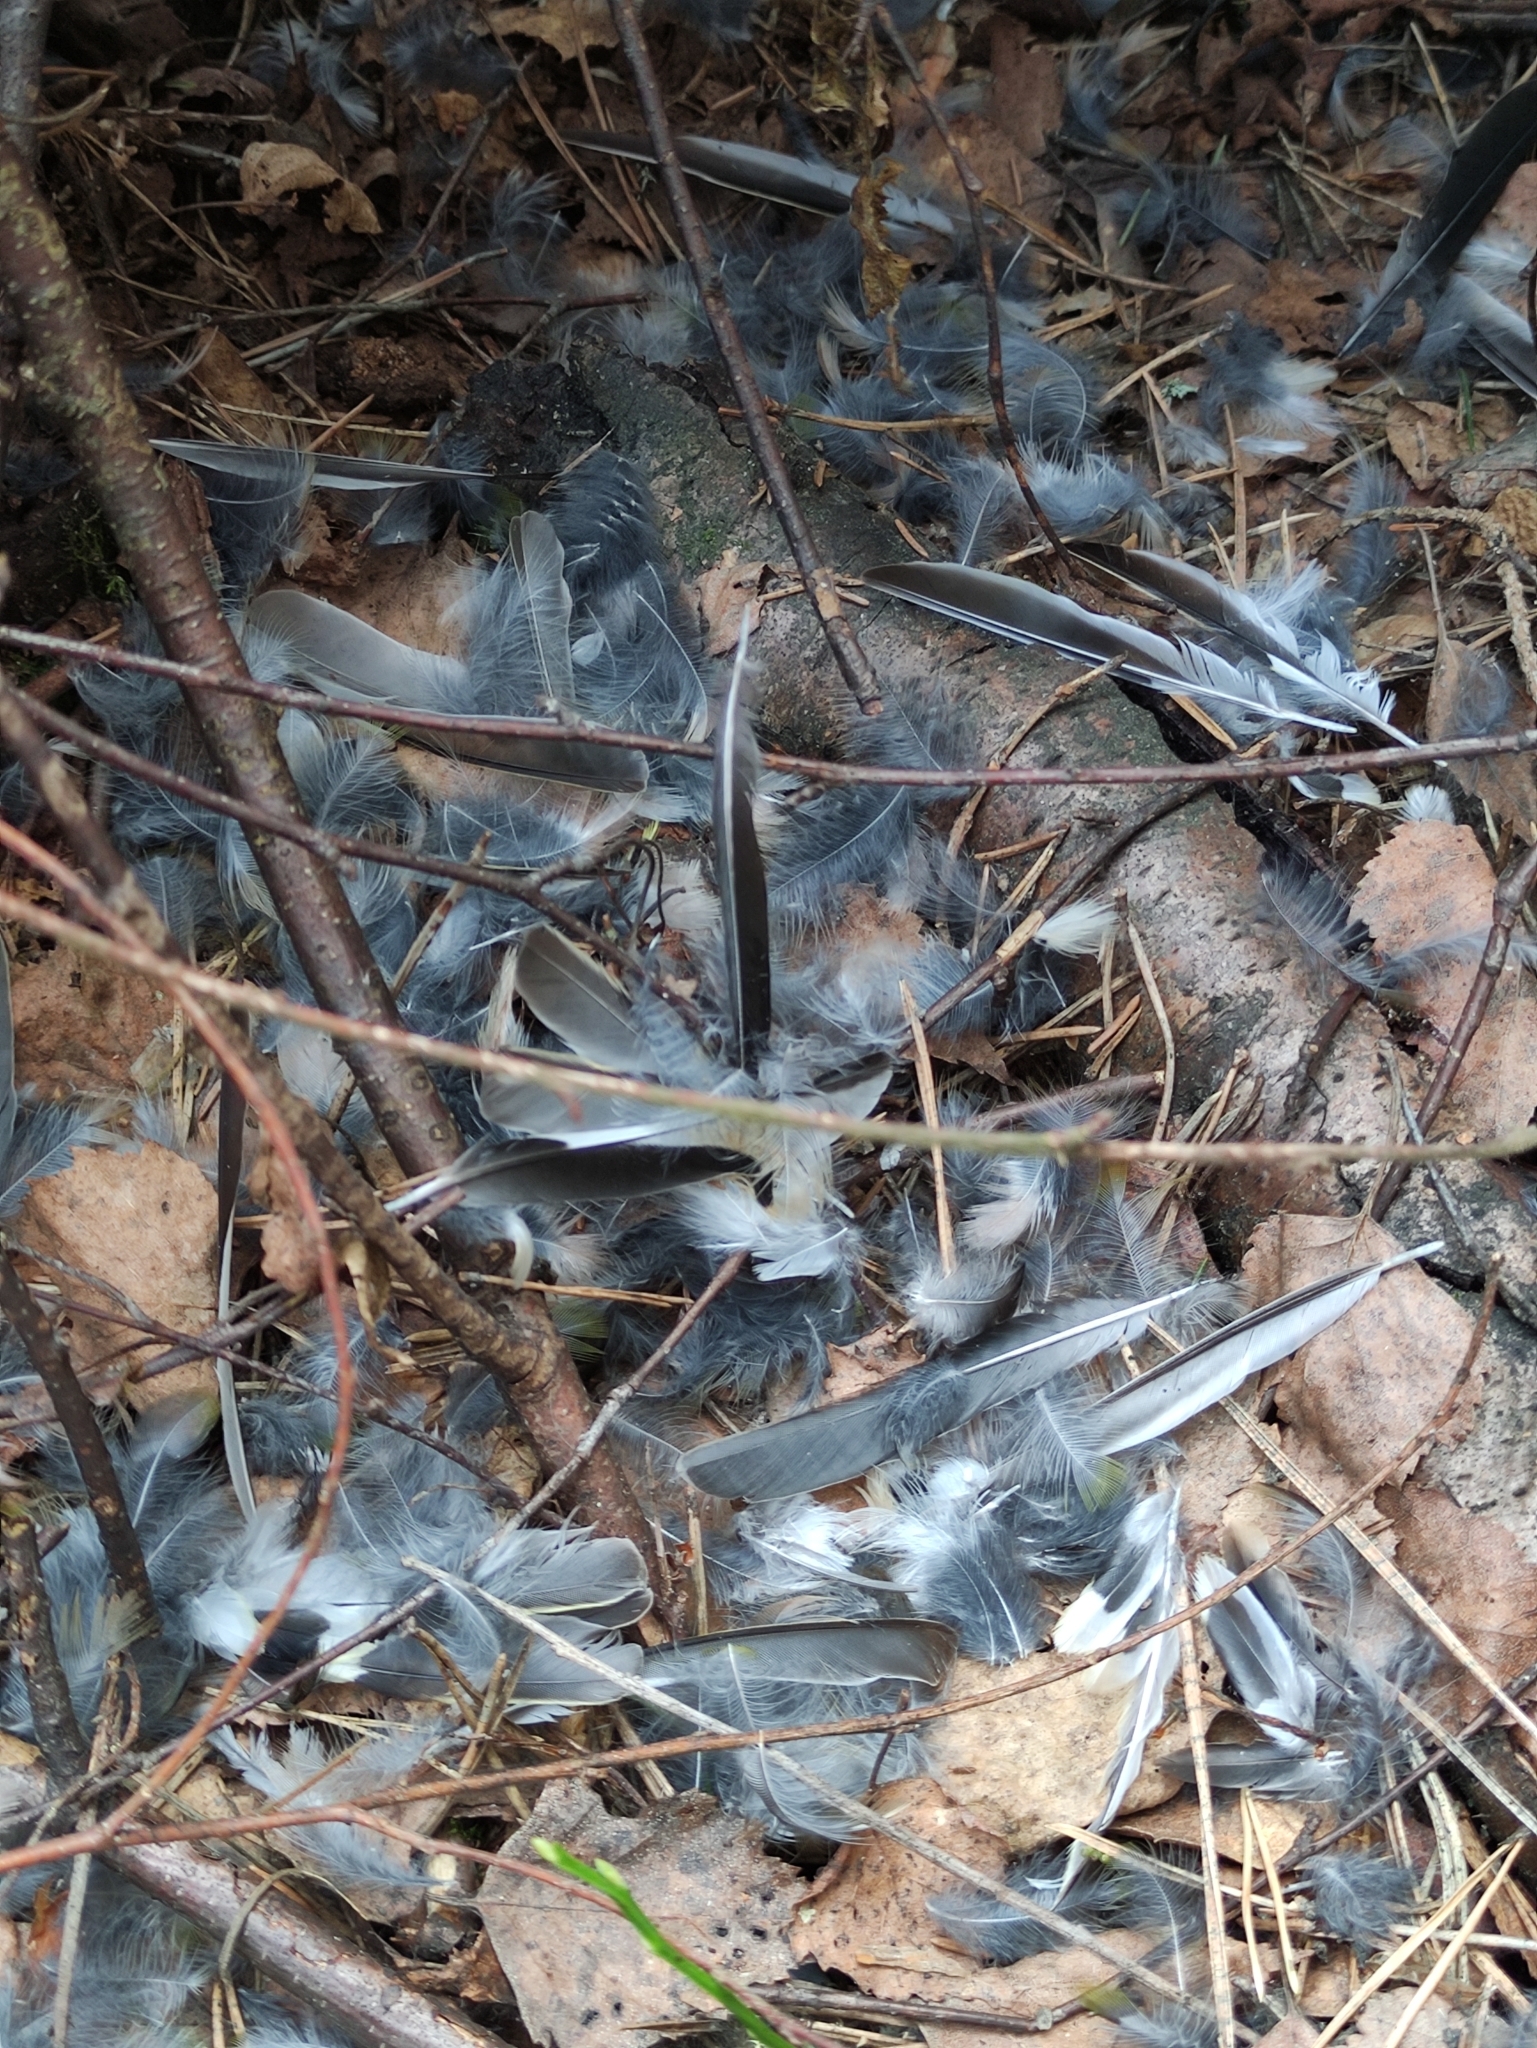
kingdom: Animalia
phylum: Chordata
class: Aves
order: Passeriformes
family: Fringillidae
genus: Fringilla
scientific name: Fringilla coelebs
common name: Common chaffinch
